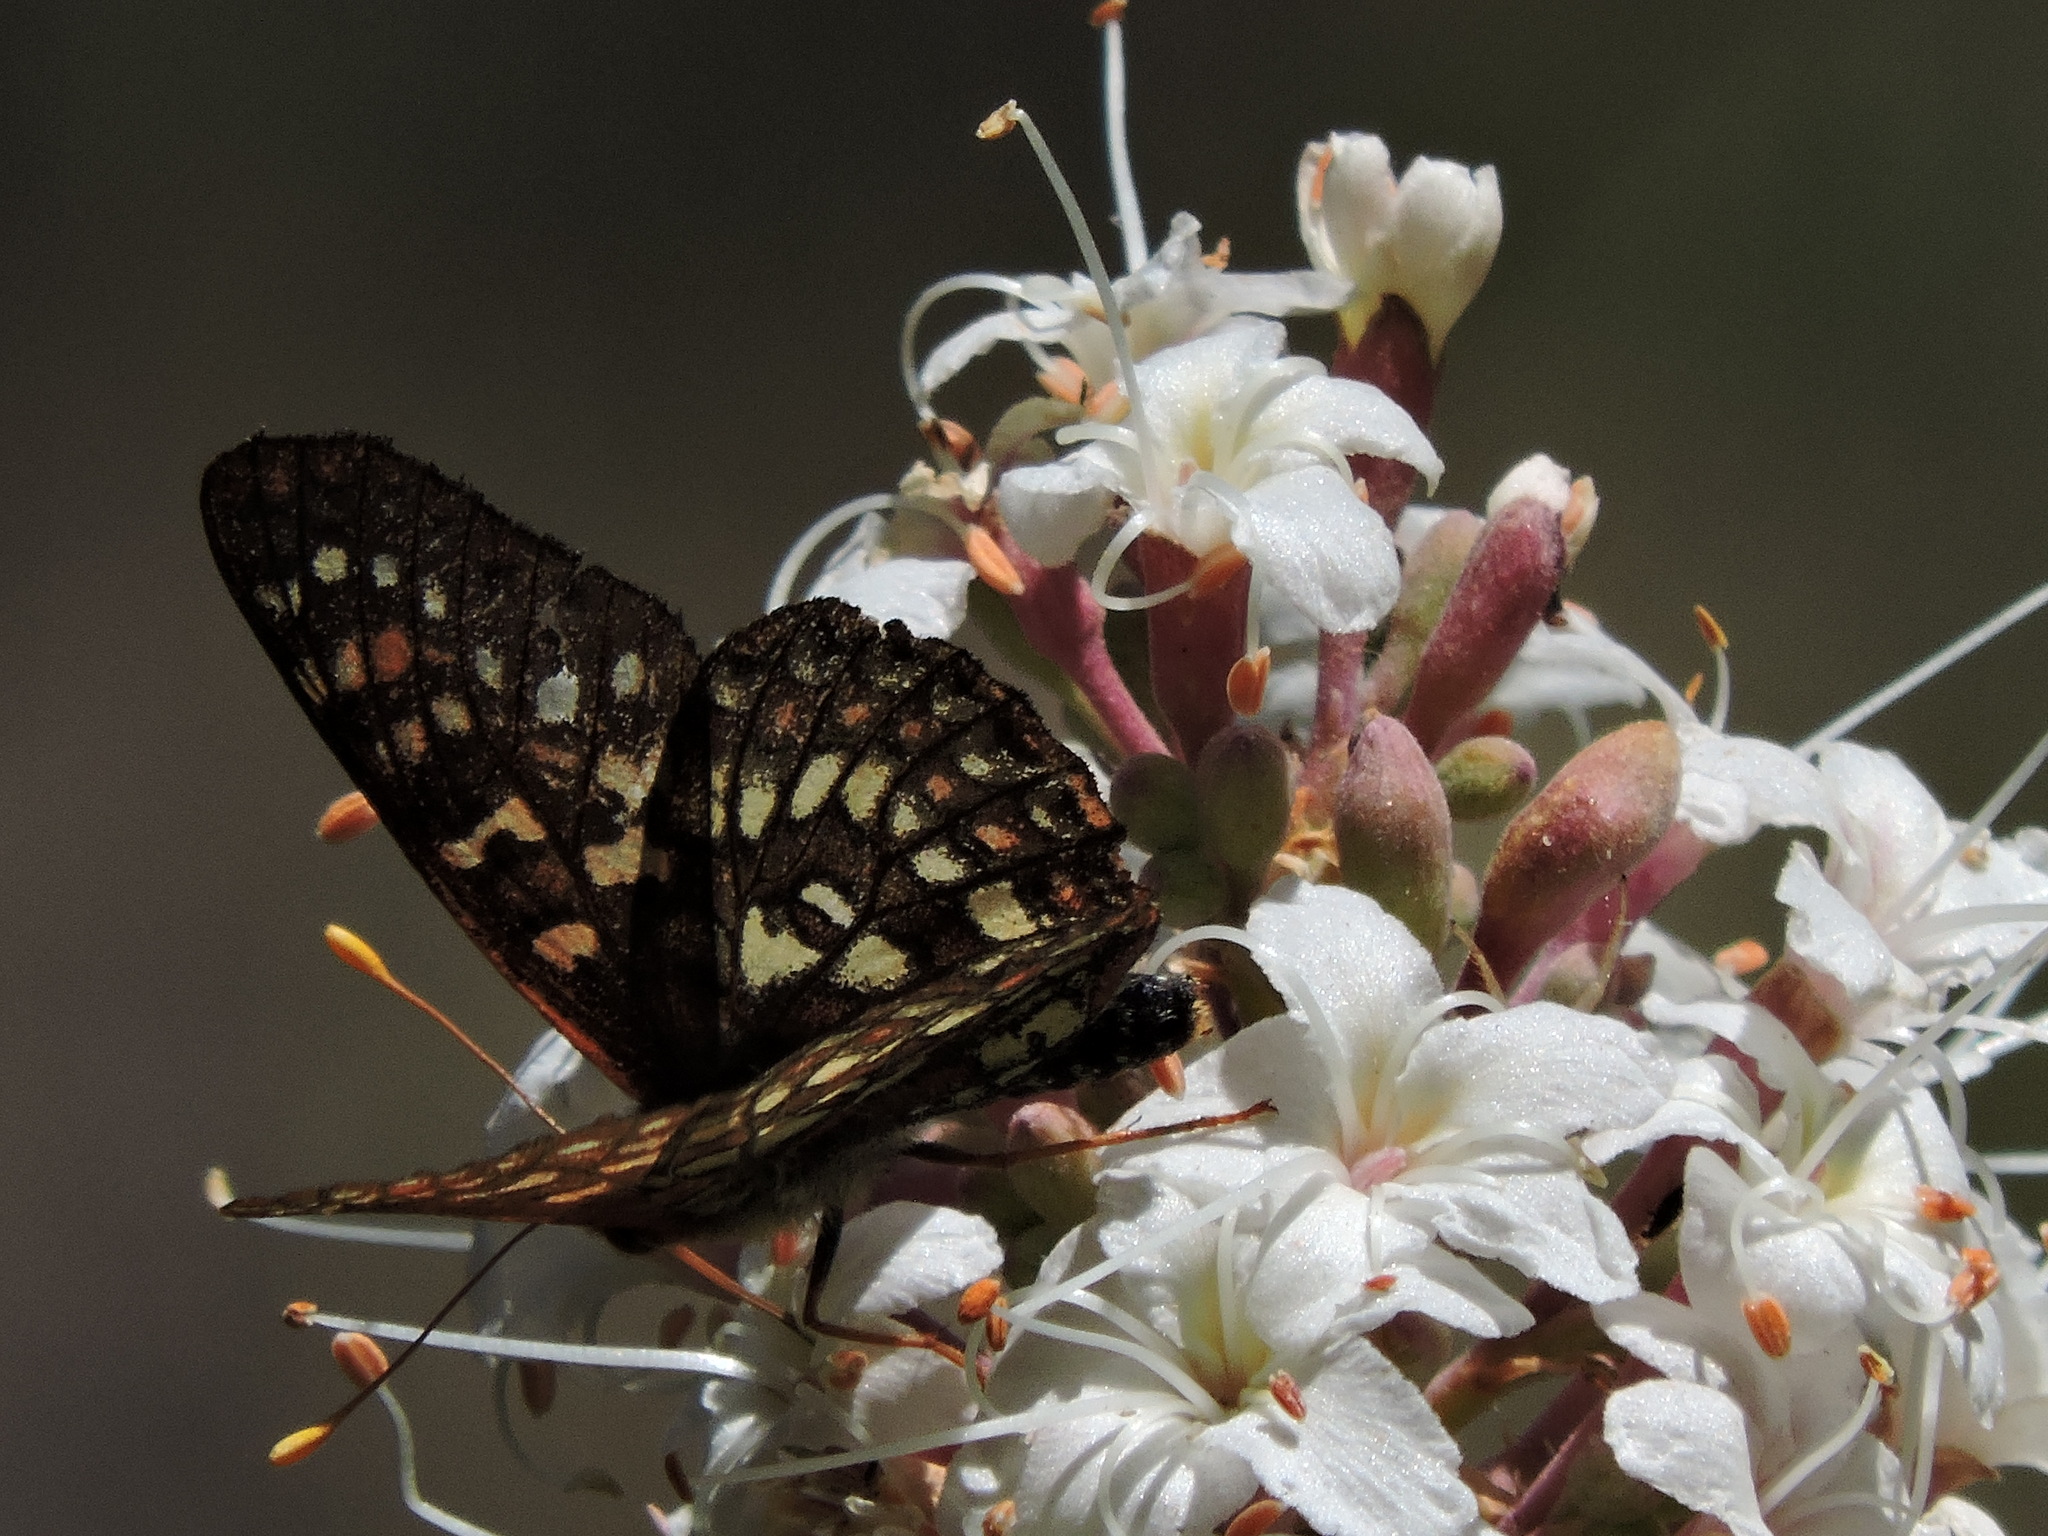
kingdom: Animalia
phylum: Arthropoda
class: Insecta
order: Lepidoptera
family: Nymphalidae
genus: Occidryas
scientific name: Occidryas chalcedona
